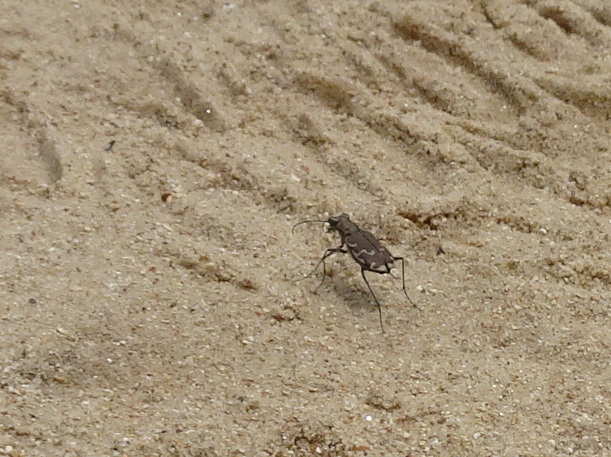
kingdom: Animalia
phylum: Arthropoda
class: Insecta
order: Coleoptera
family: Carabidae
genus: Cicindela
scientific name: Cicindela repanda
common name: Bronzed tiger beetle
